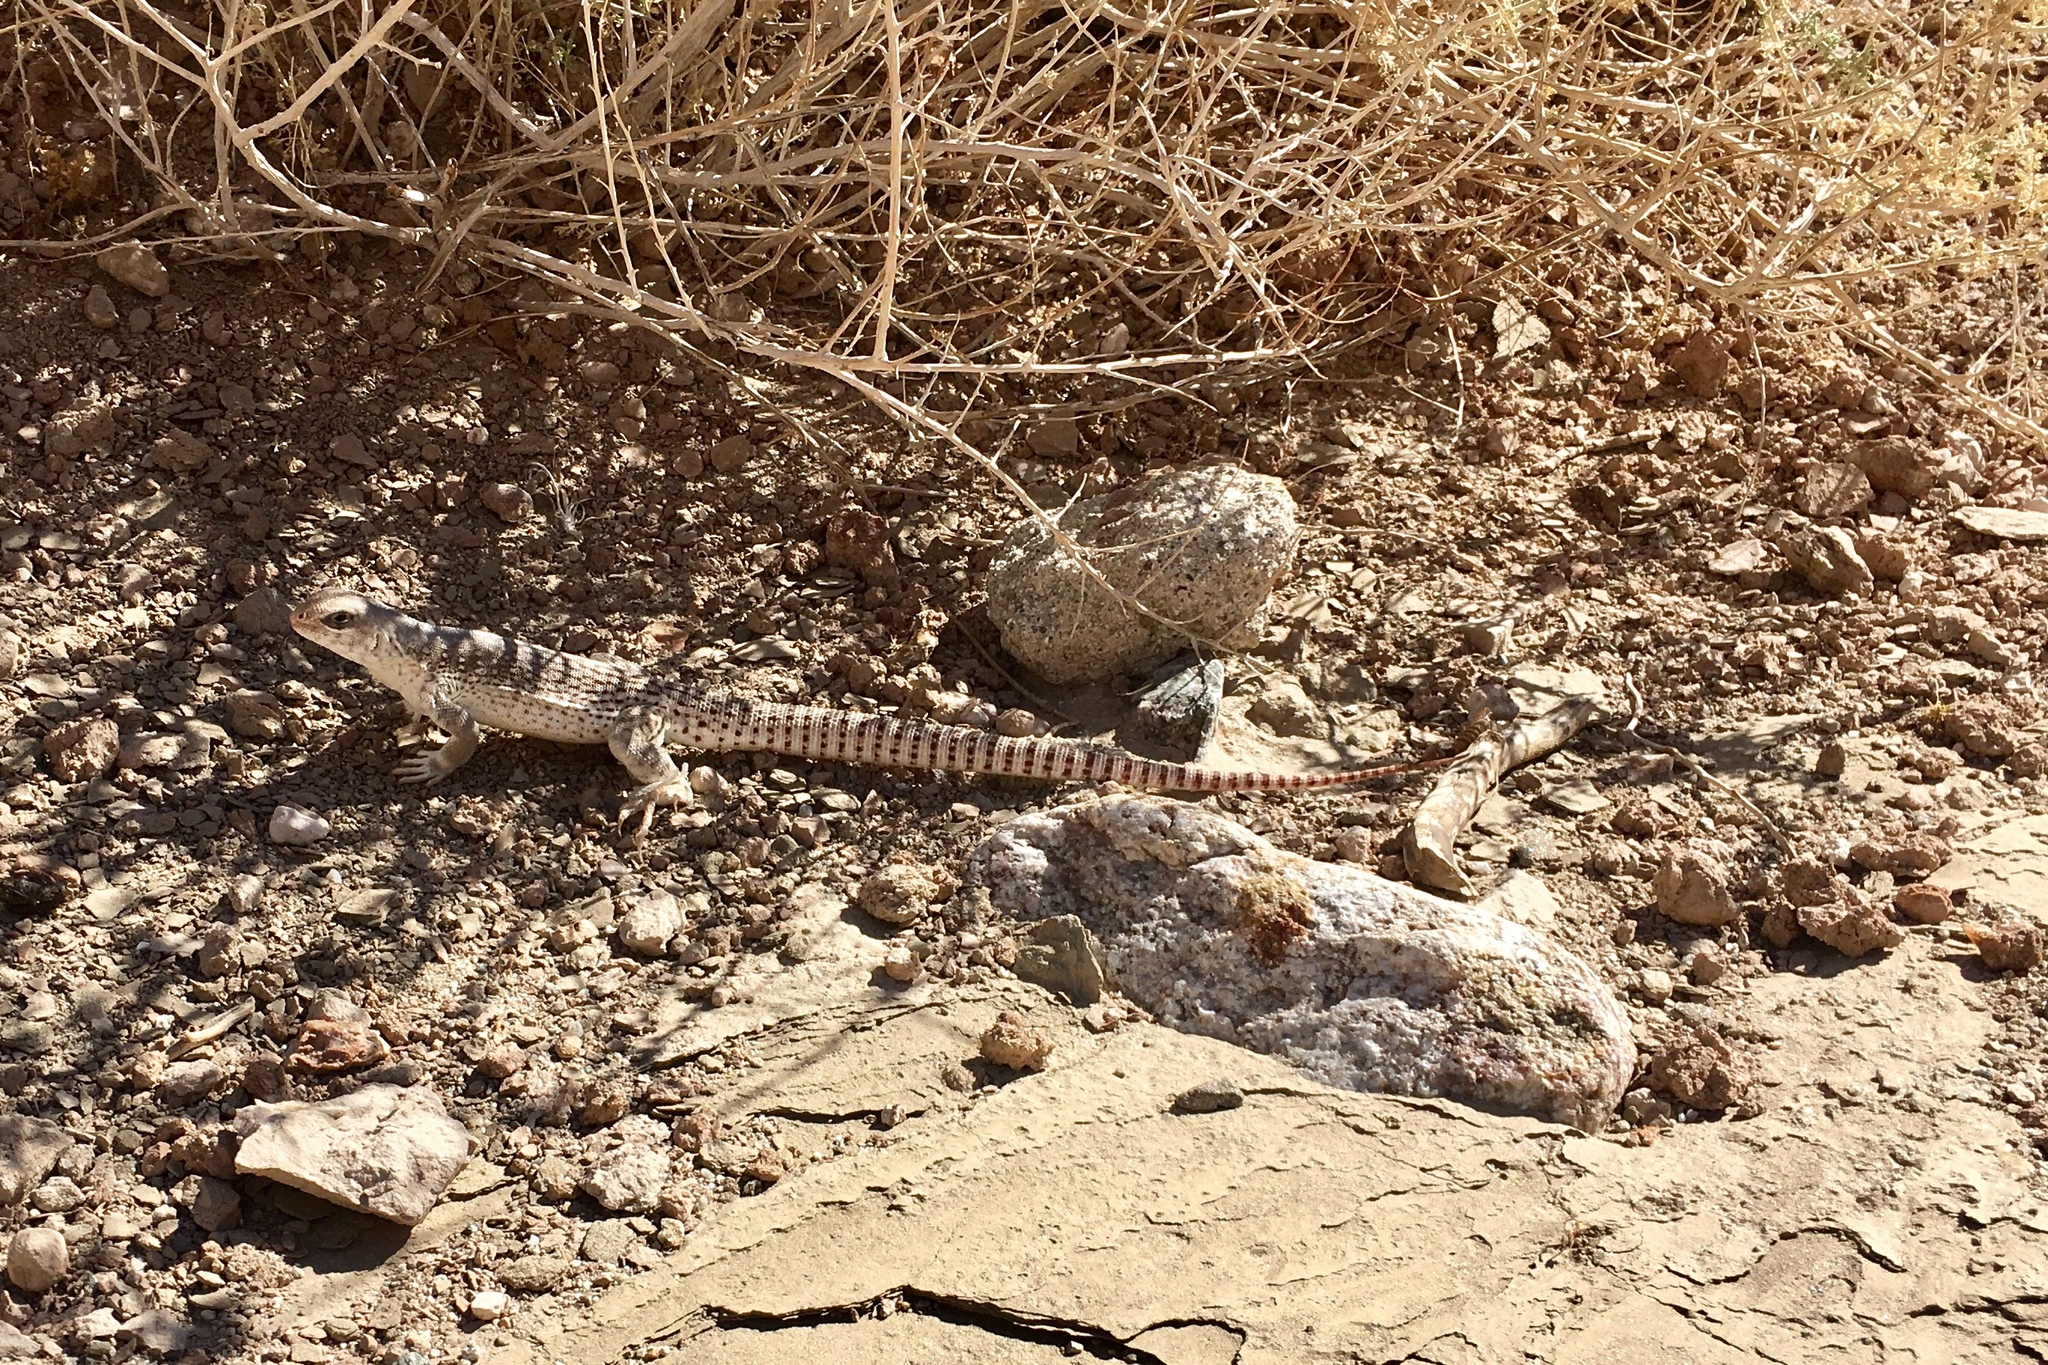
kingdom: Animalia
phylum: Chordata
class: Squamata
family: Iguanidae
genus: Dipsosaurus
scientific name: Dipsosaurus dorsalis
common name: Desert iguana
